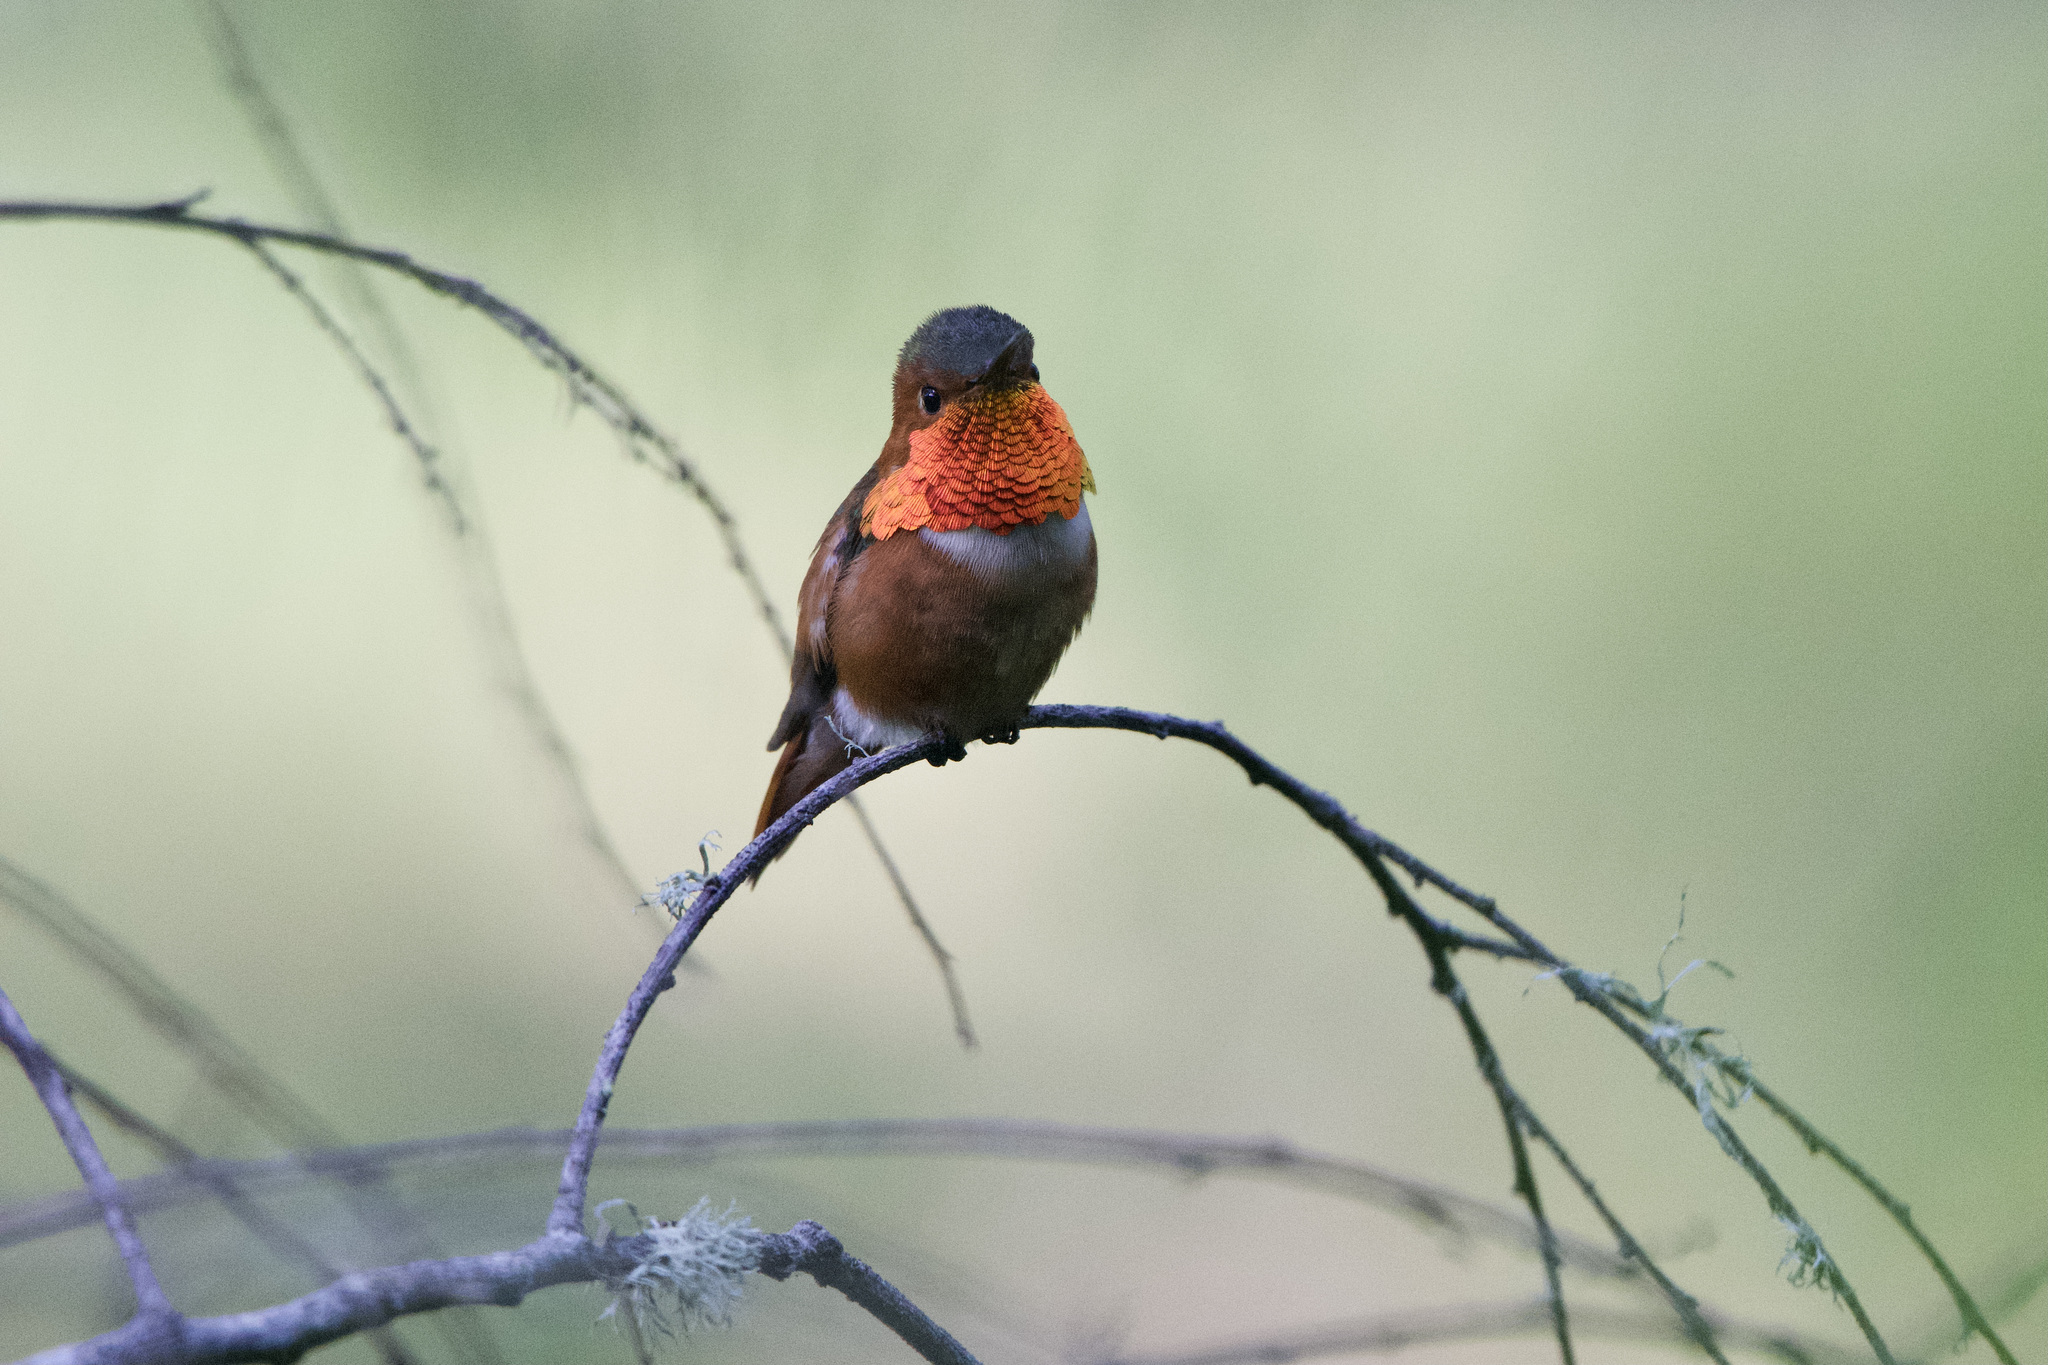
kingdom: Animalia
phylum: Chordata
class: Aves
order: Apodiformes
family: Trochilidae
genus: Selasphorus
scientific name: Selasphorus sasin
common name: Allen's hummingbird
